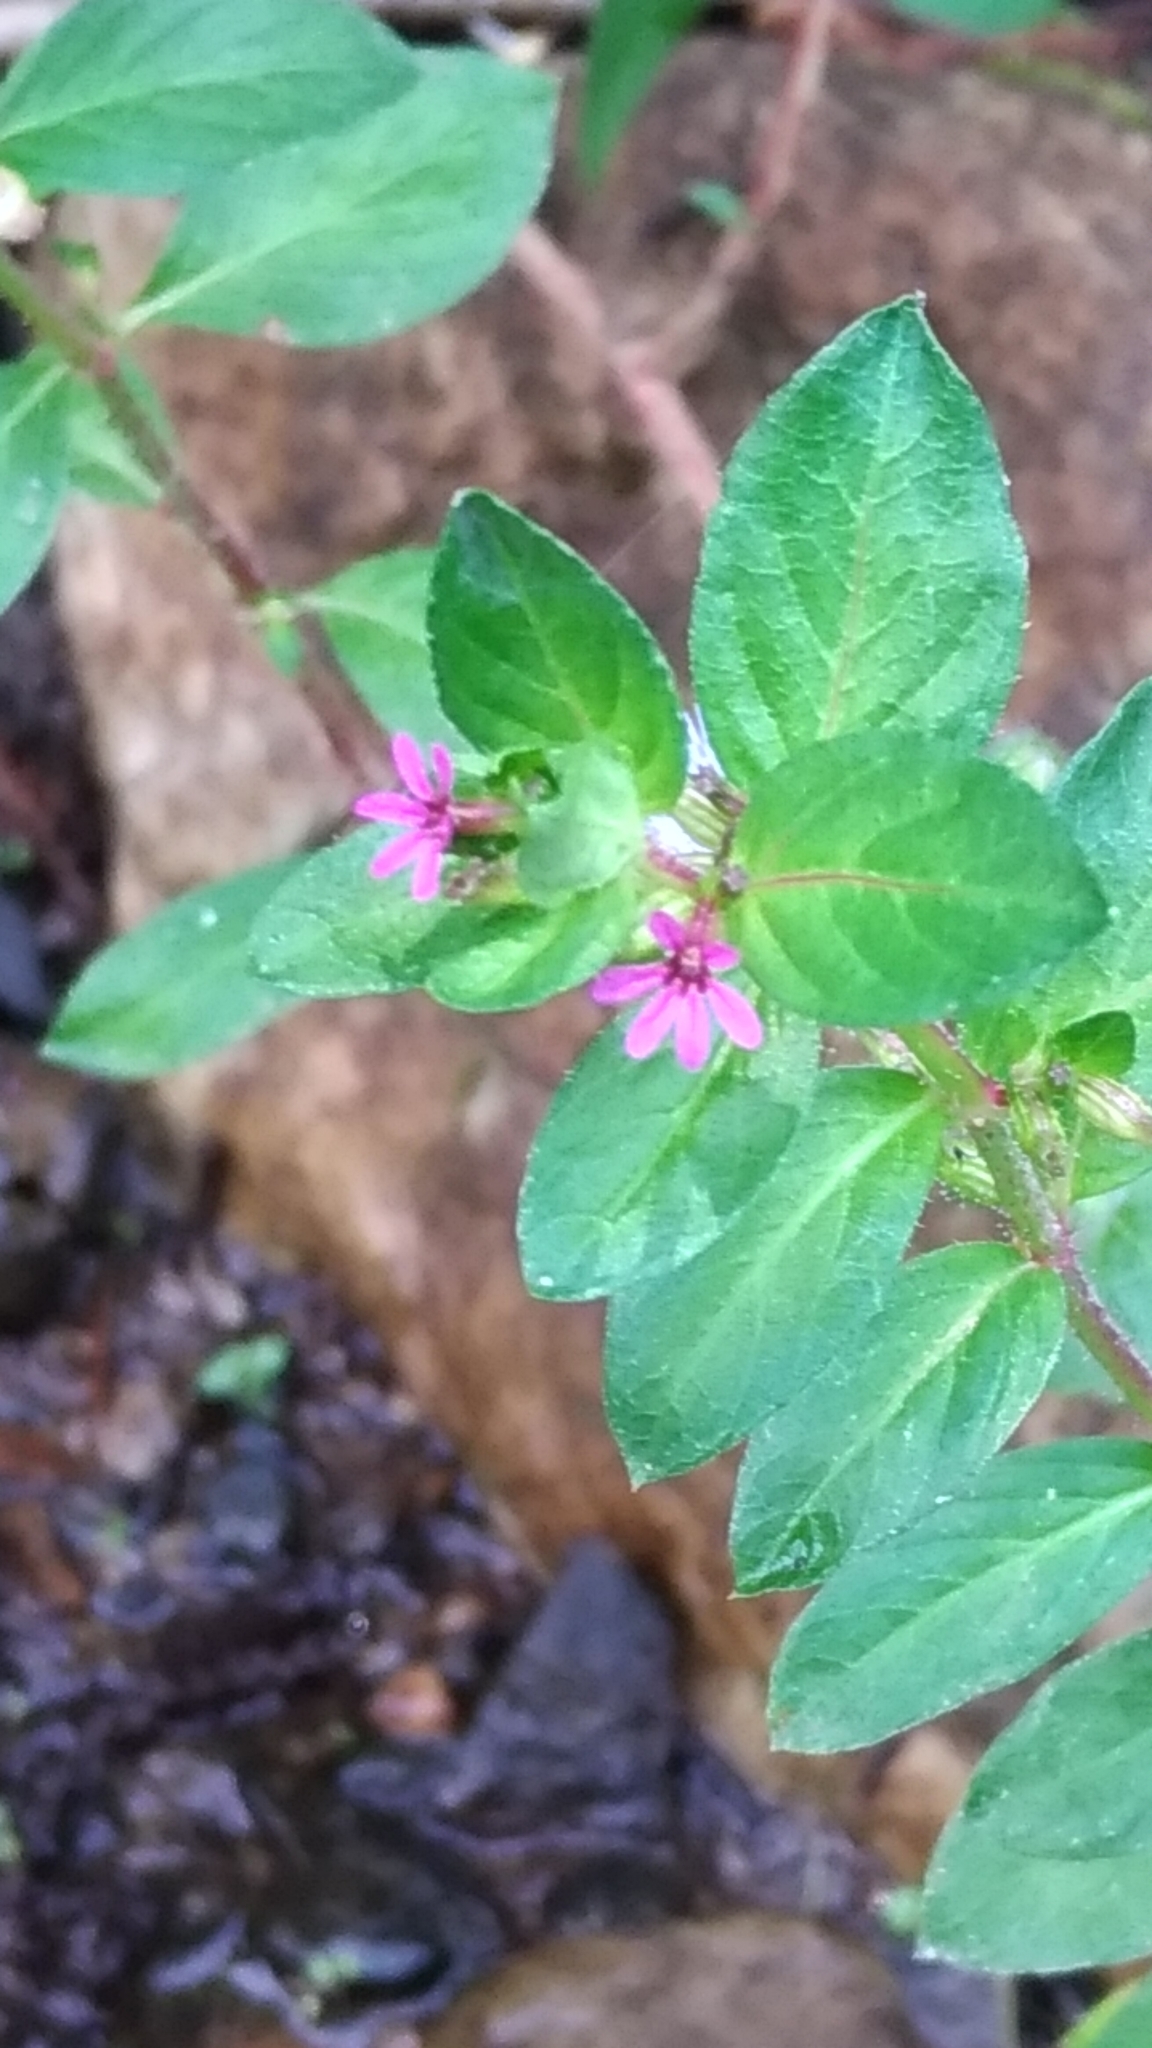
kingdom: Plantae
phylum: Tracheophyta
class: Magnoliopsida
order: Myrtales
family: Lythraceae
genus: Cuphea
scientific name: Cuphea carthagenensis
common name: Colombian waxweed
